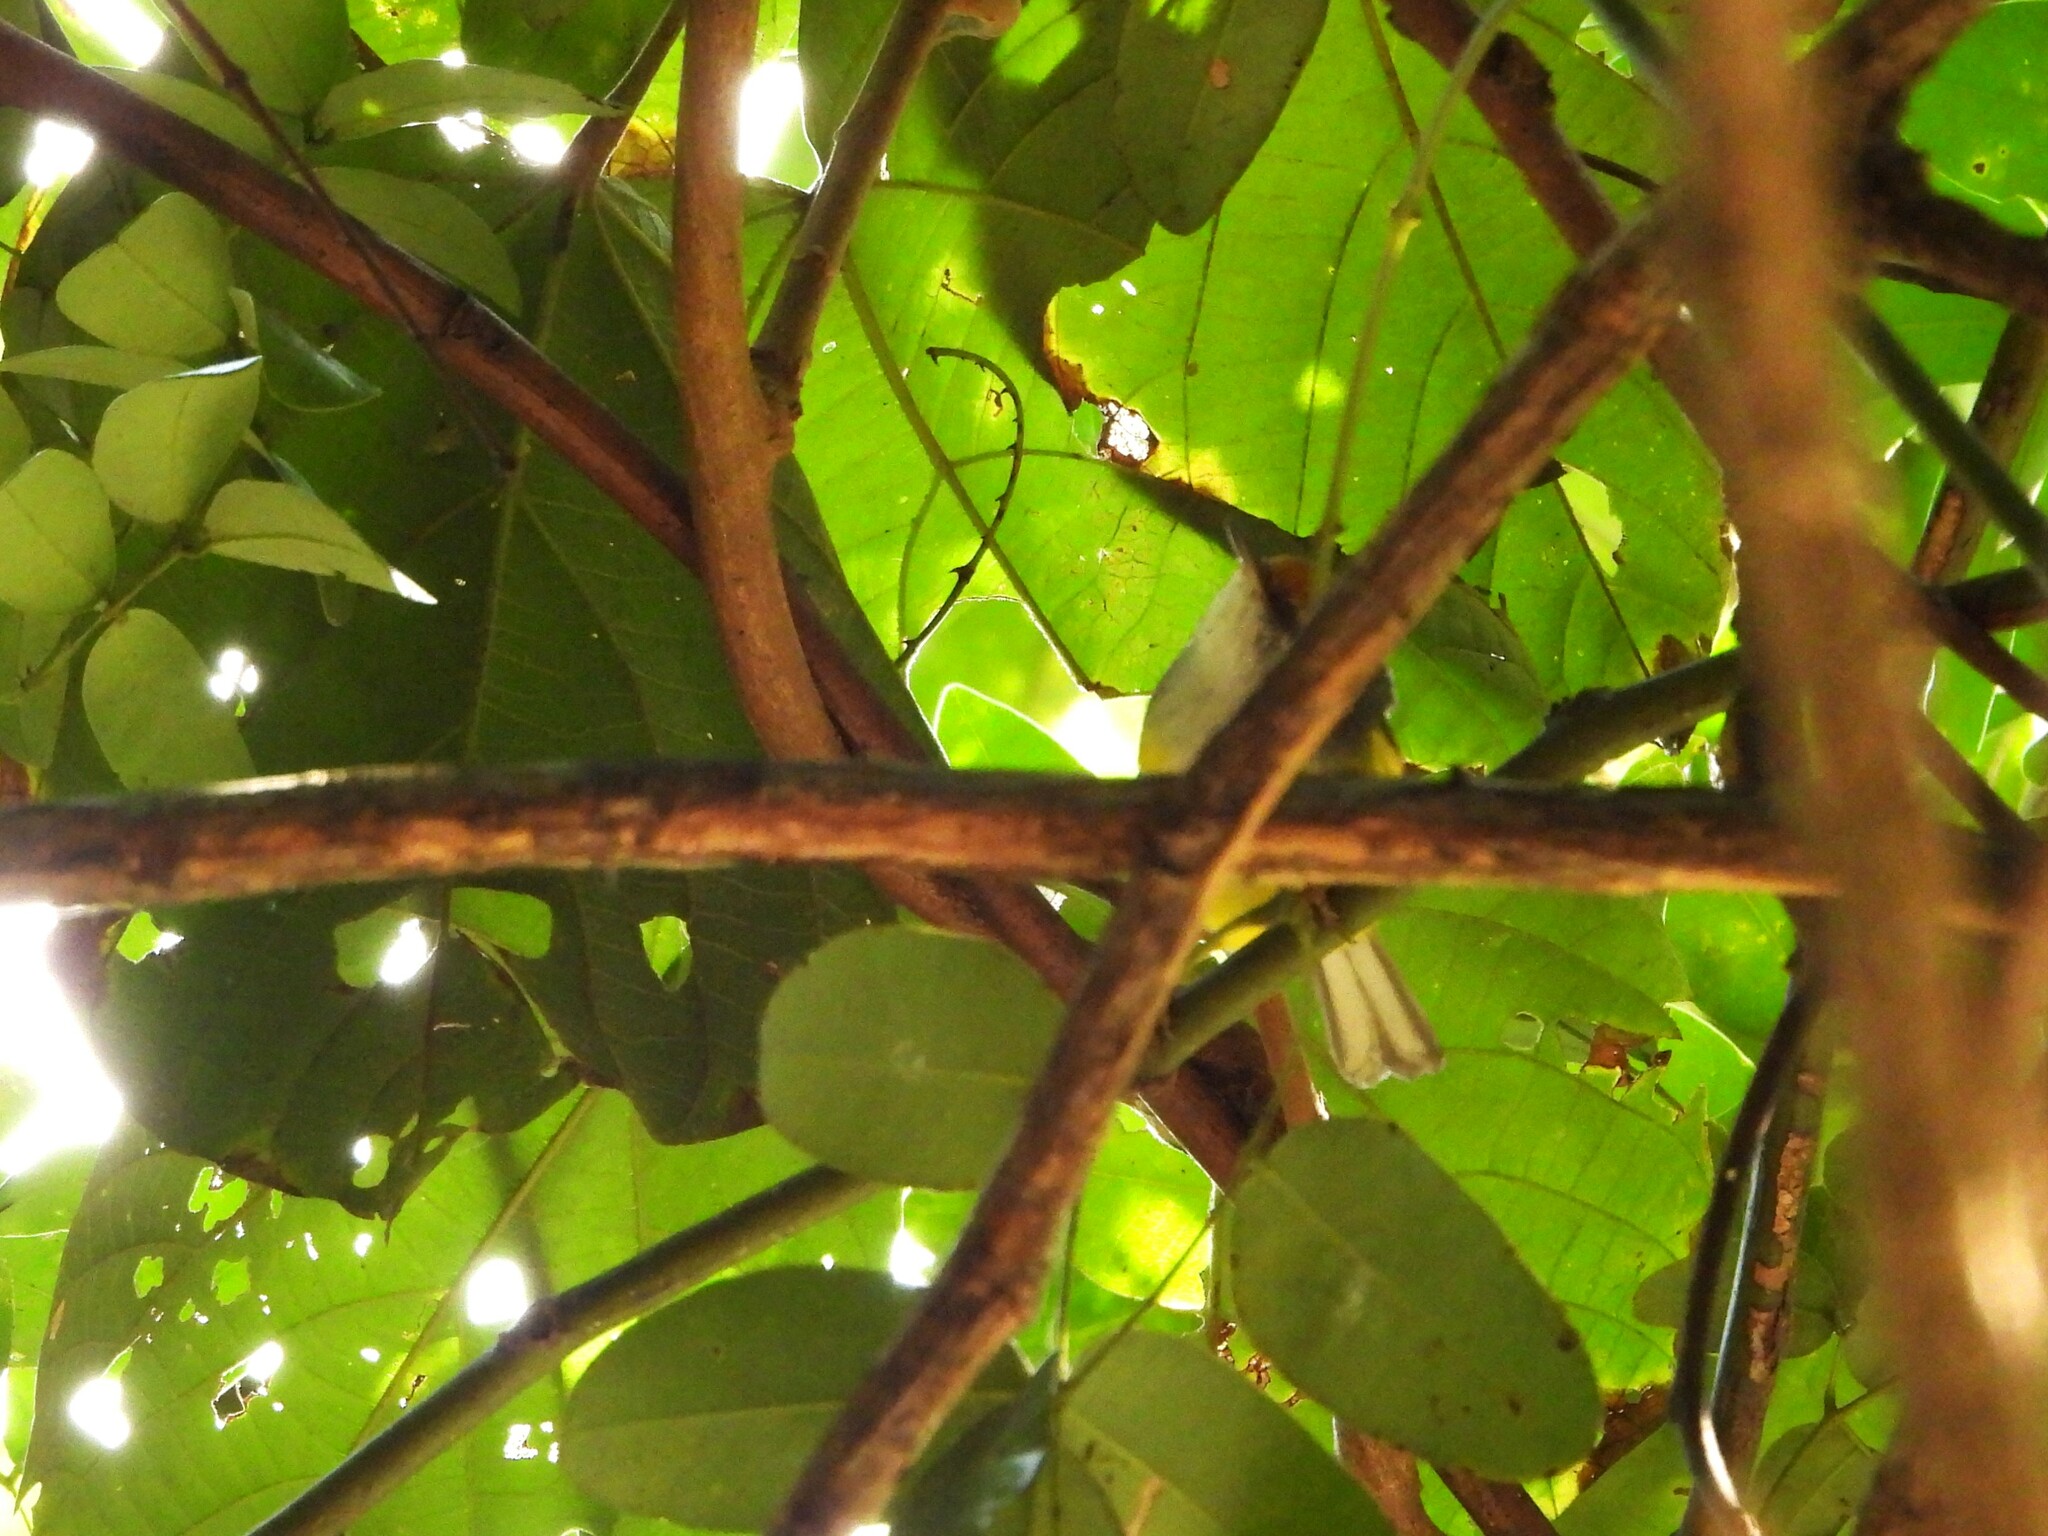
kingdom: Animalia
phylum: Chordata
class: Aves
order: Passeriformes
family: Cettiidae
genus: Phyllergates
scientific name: Phyllergates cuculatus
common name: Mountain tailorbird
